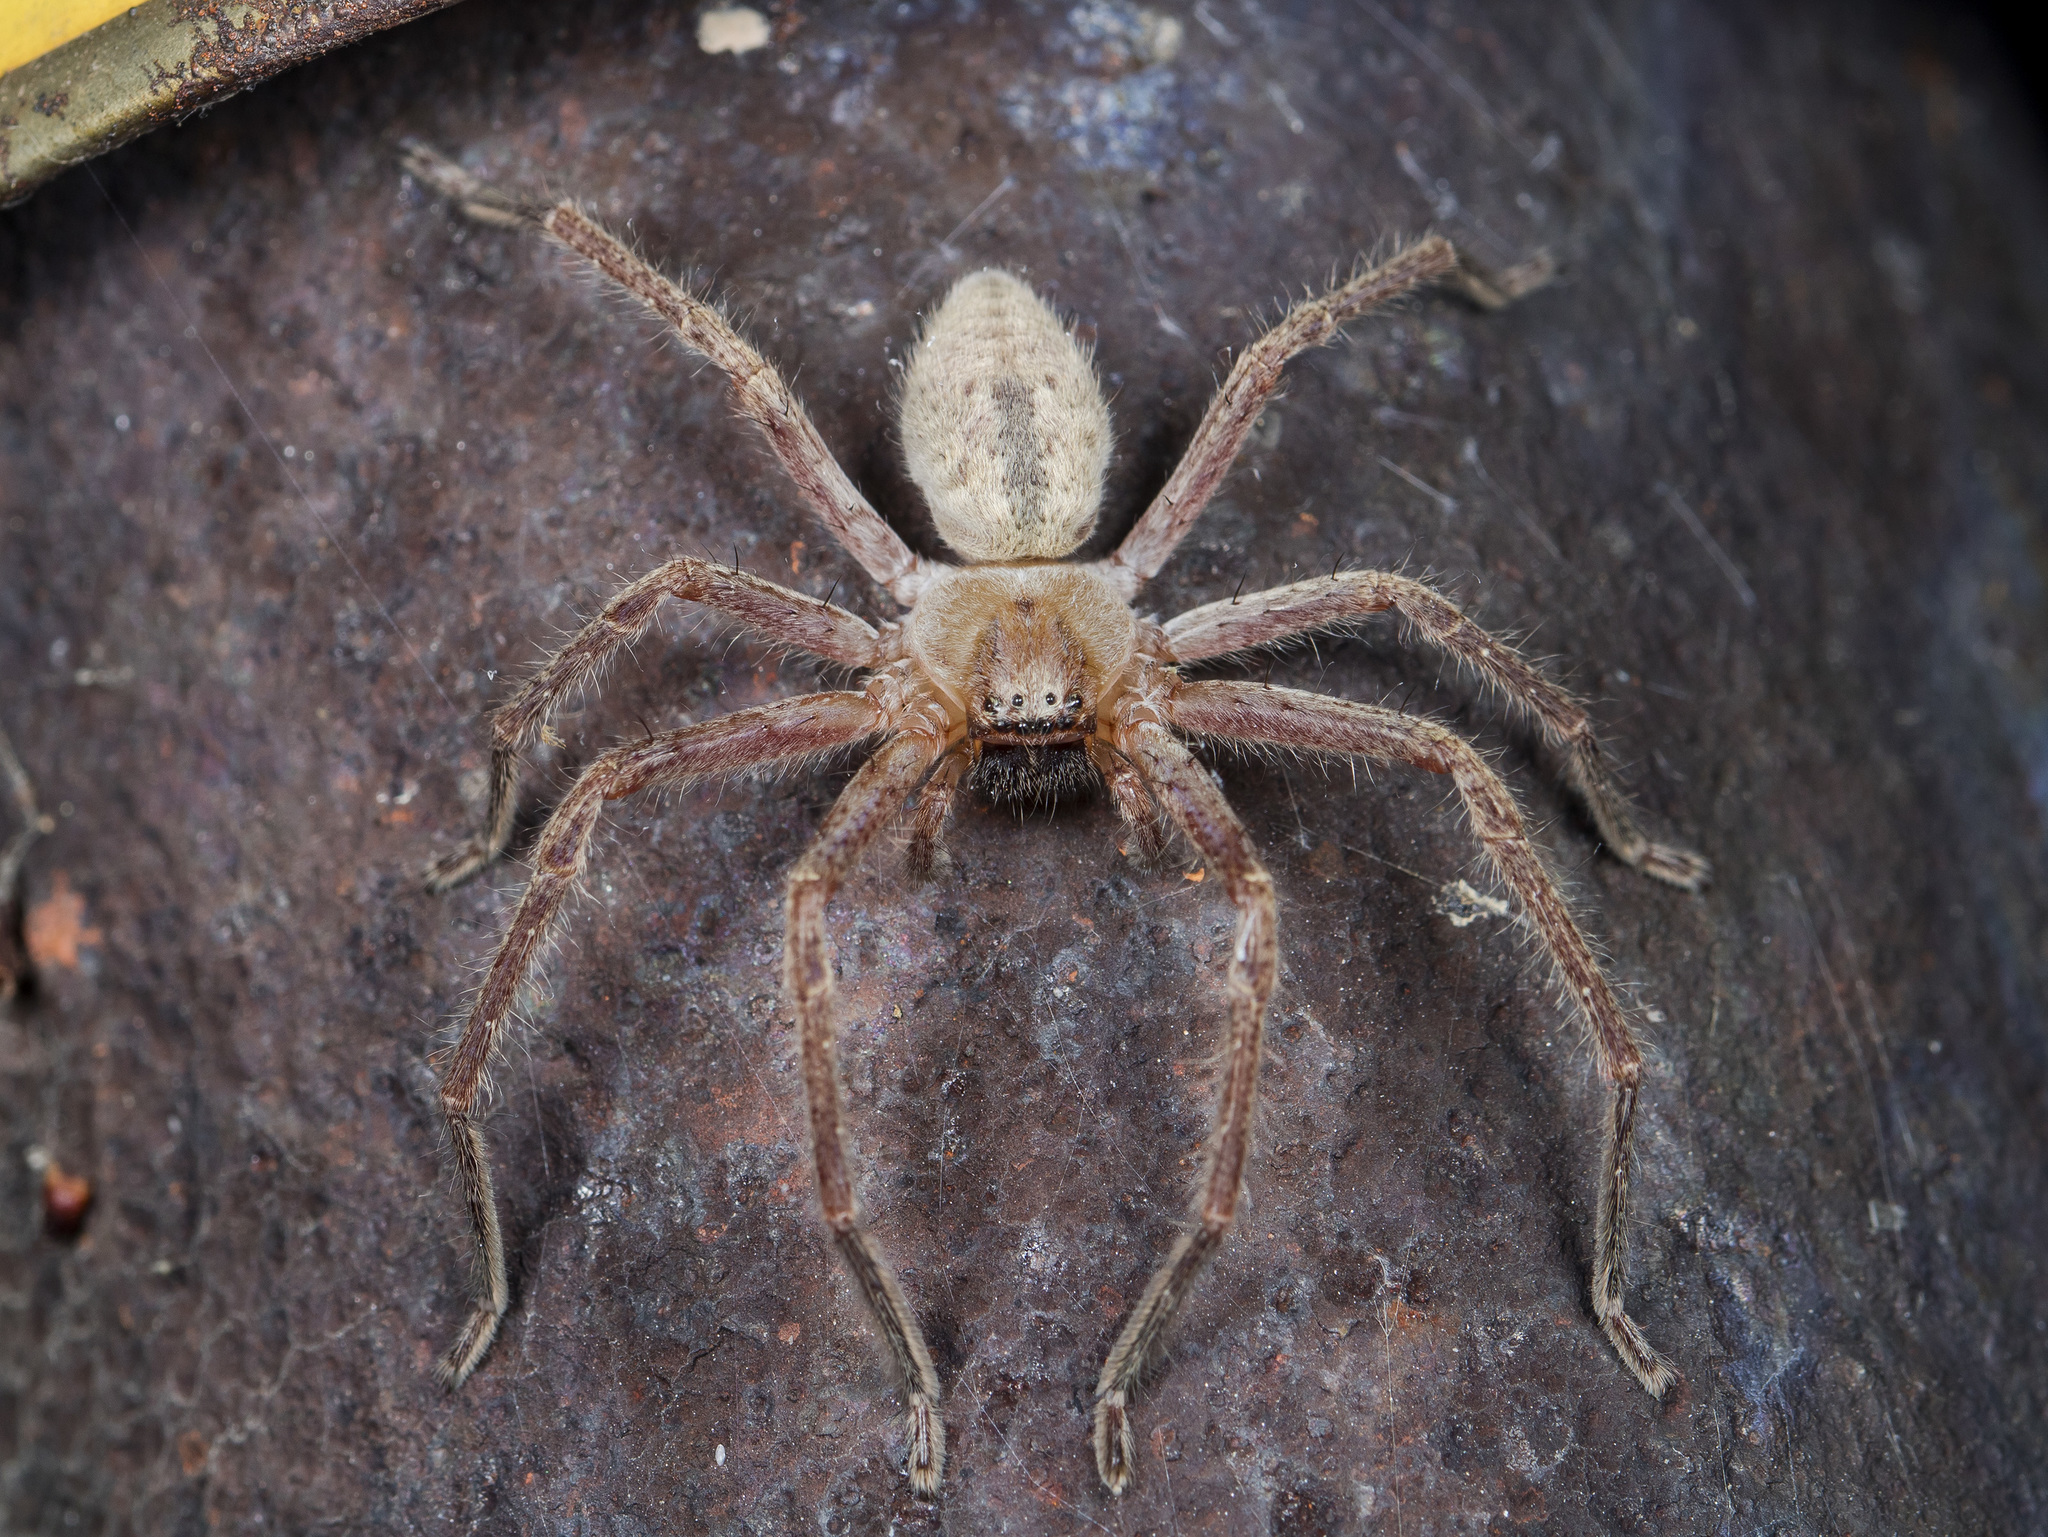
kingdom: Animalia
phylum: Arthropoda
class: Arachnida
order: Araneae
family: Sparassidae
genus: Olios
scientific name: Olios sericeus
